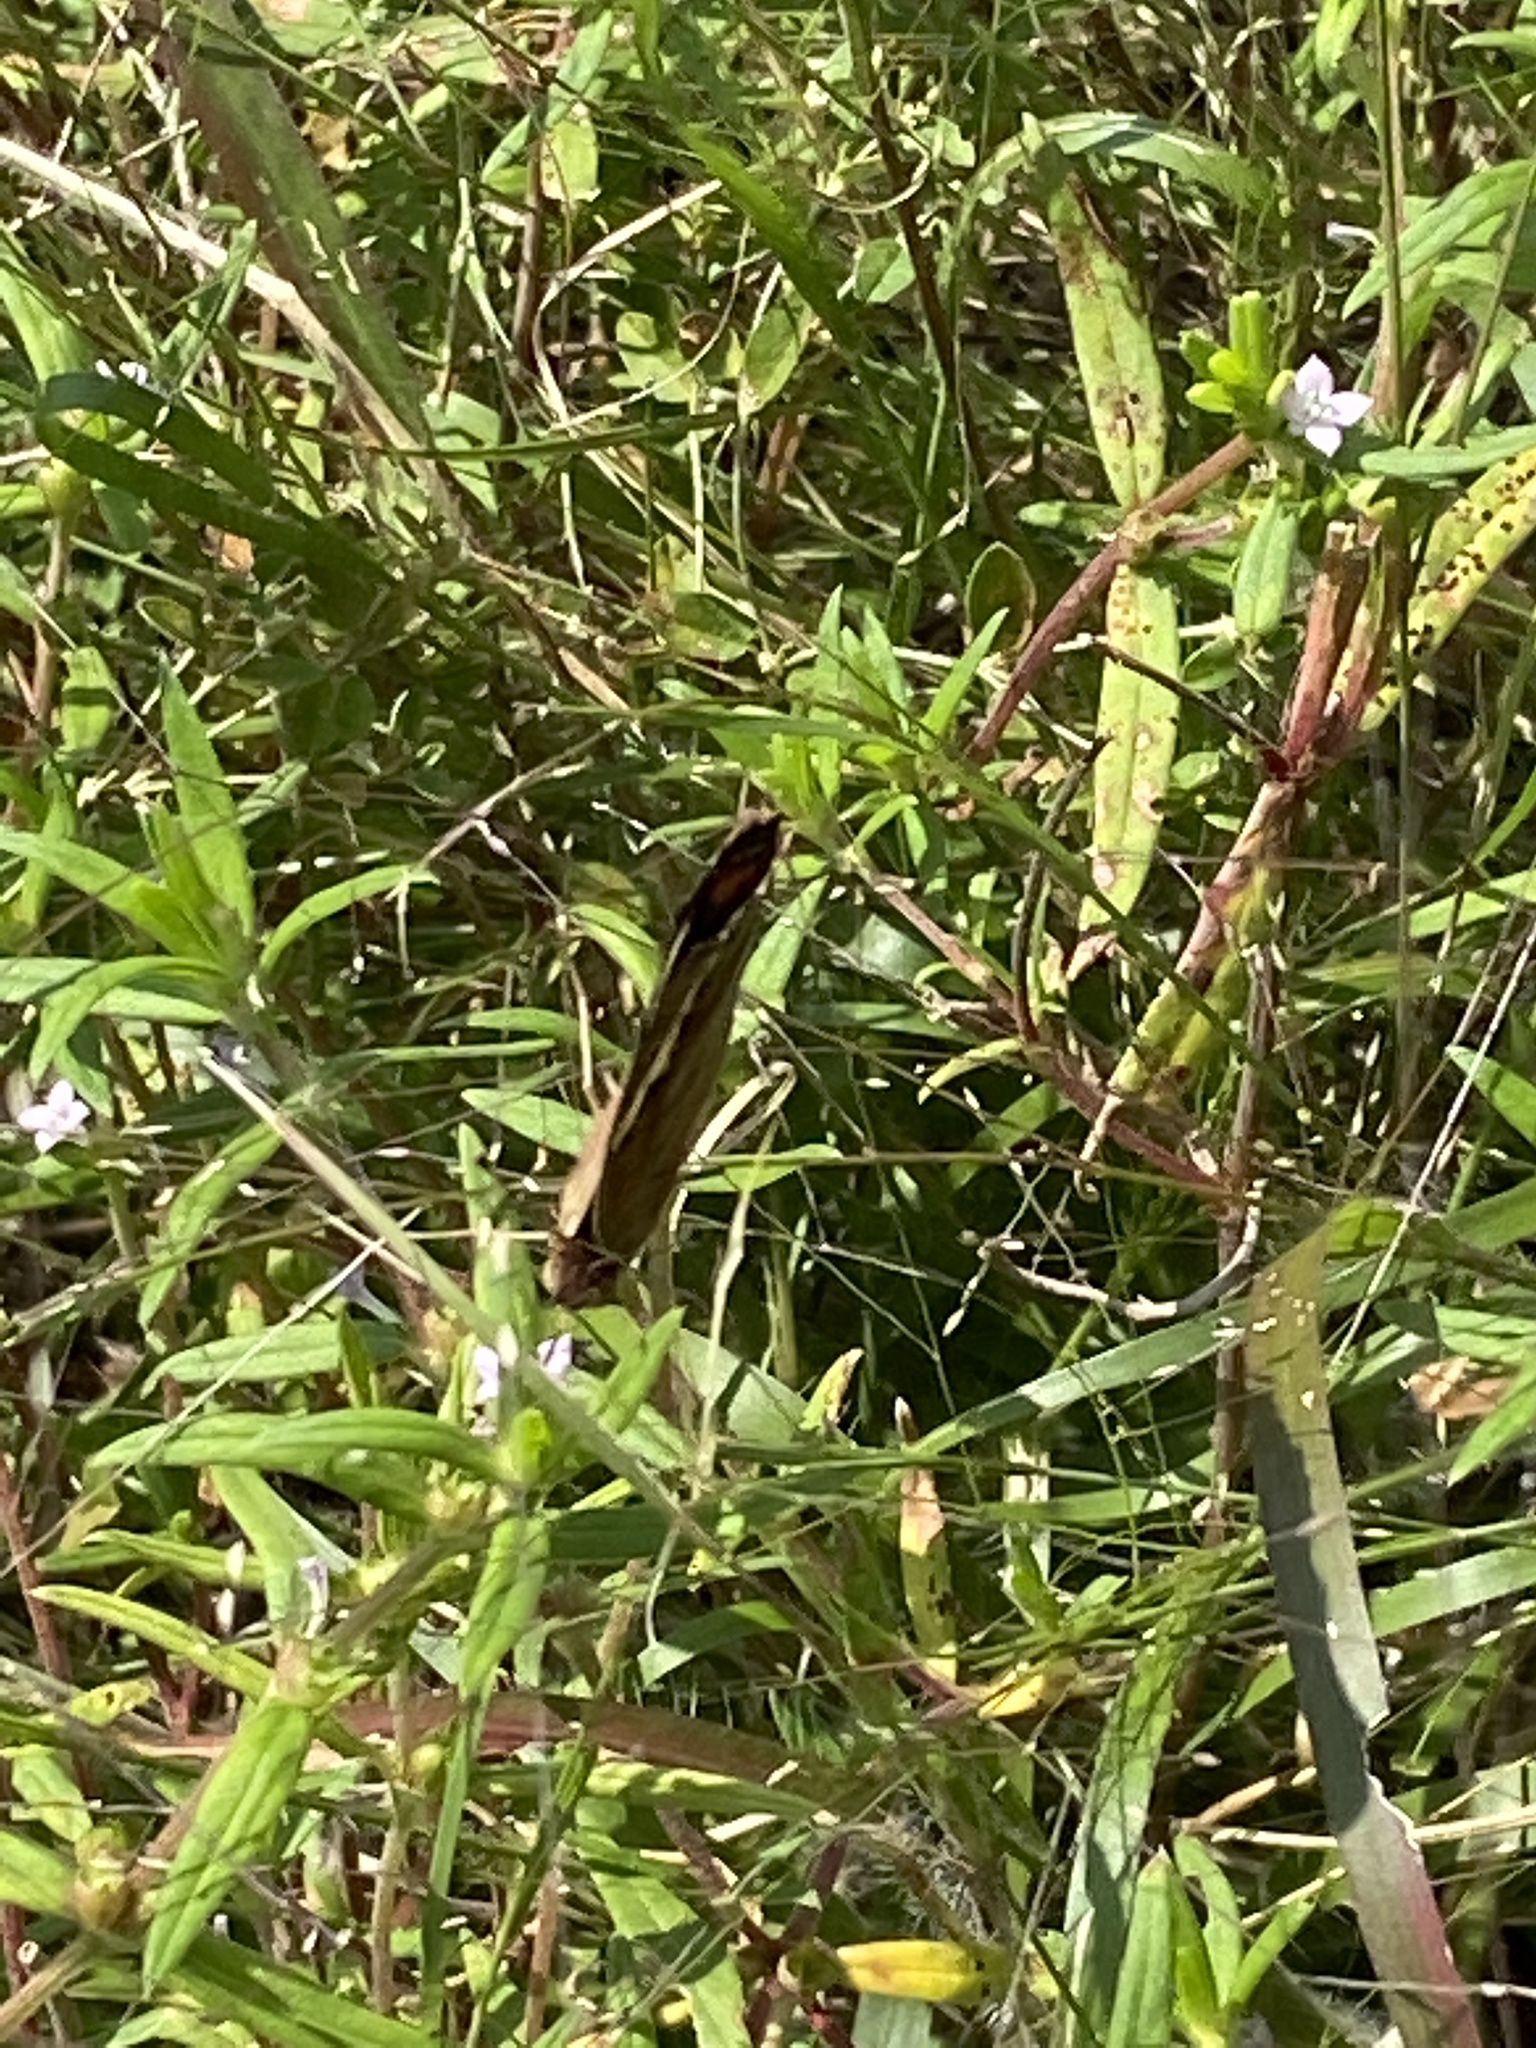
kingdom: Animalia
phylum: Arthropoda
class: Insecta
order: Lepidoptera
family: Nymphalidae
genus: Junonia
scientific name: Junonia coenia
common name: Common buckeye
